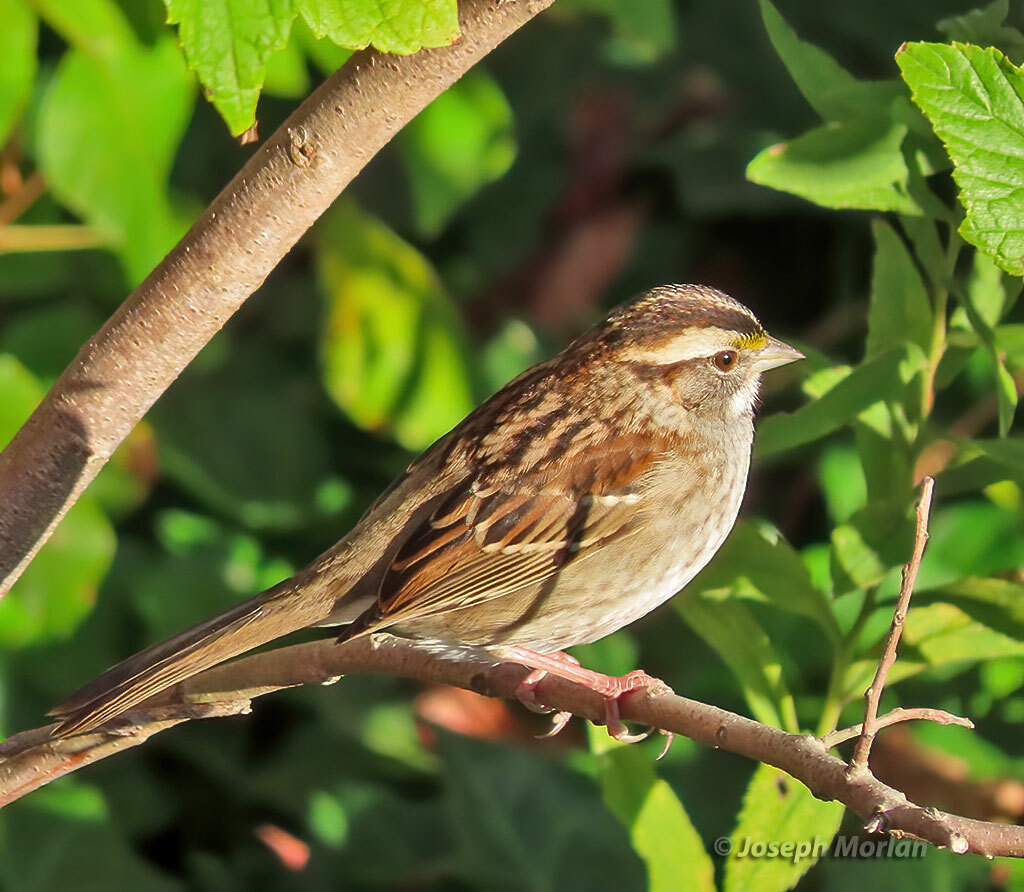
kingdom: Animalia
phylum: Chordata
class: Aves
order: Passeriformes
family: Passerellidae
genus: Zonotrichia
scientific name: Zonotrichia albicollis
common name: White-throated sparrow
